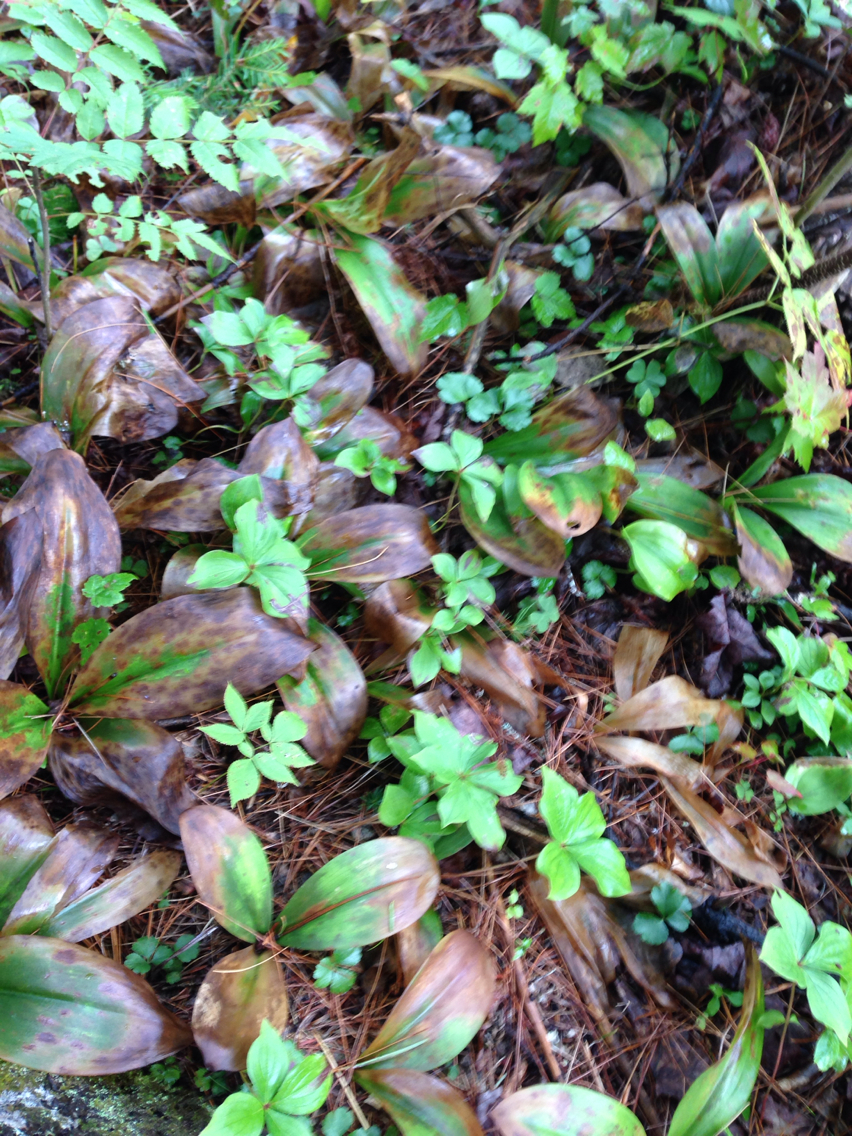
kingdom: Plantae
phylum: Tracheophyta
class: Liliopsida
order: Liliales
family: Liliaceae
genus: Clintonia
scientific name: Clintonia borealis
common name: Yellow clintonia
